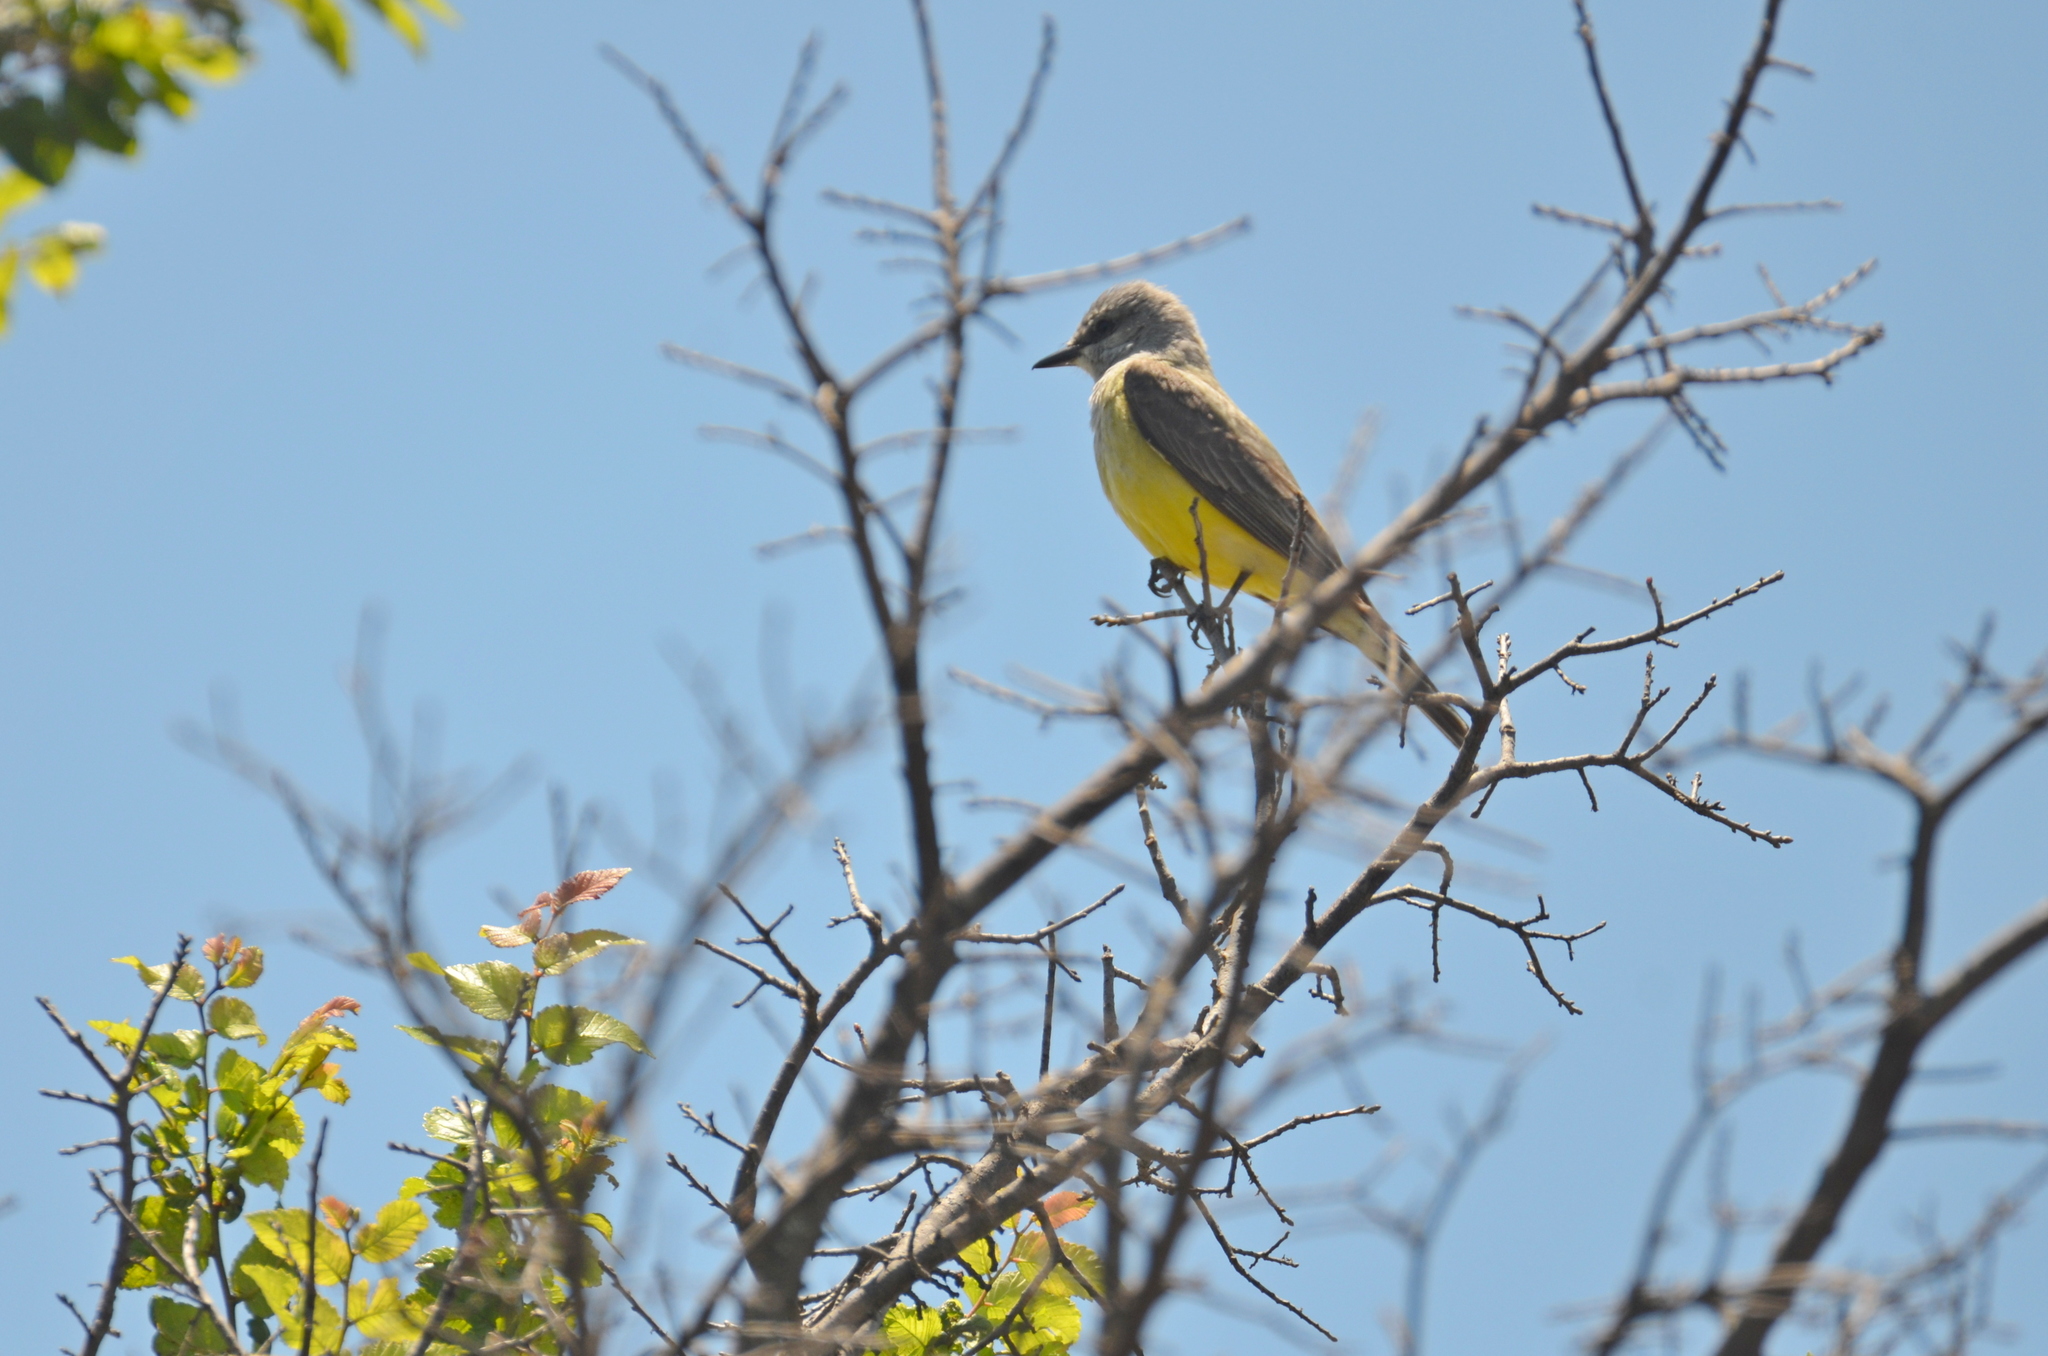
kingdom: Animalia
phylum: Chordata
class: Aves
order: Passeriformes
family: Tyrannidae
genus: Tyrannus
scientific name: Tyrannus verticalis
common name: Western kingbird
